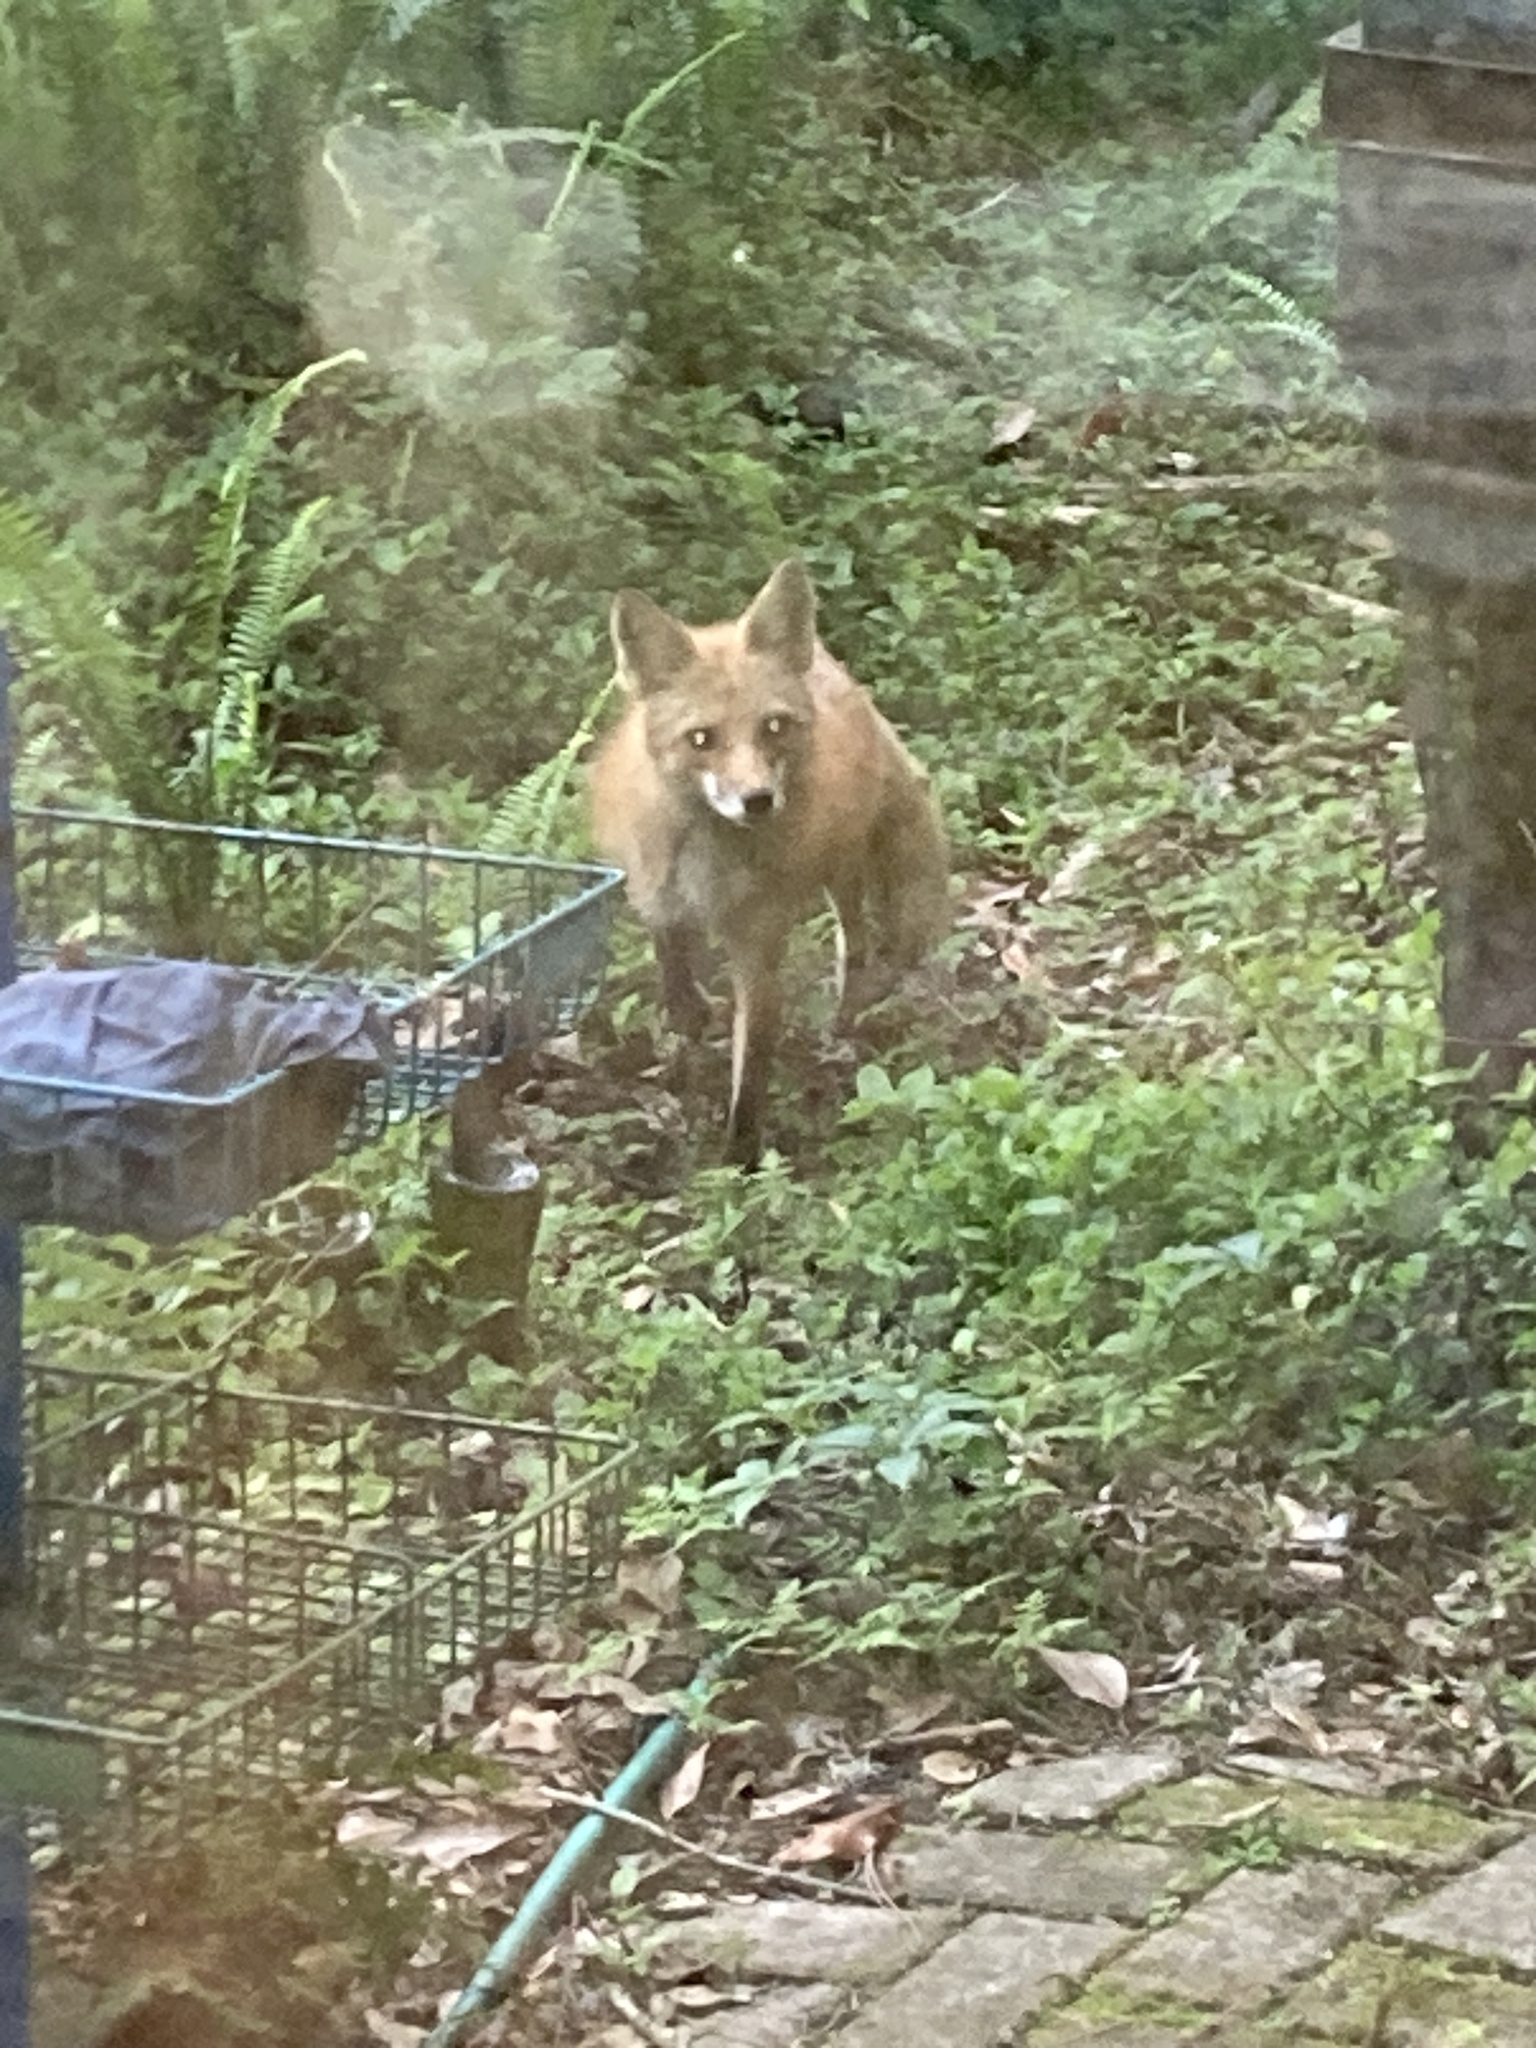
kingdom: Animalia
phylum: Chordata
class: Mammalia
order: Carnivora
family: Canidae
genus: Vulpes
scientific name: Vulpes vulpes
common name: Red fox
